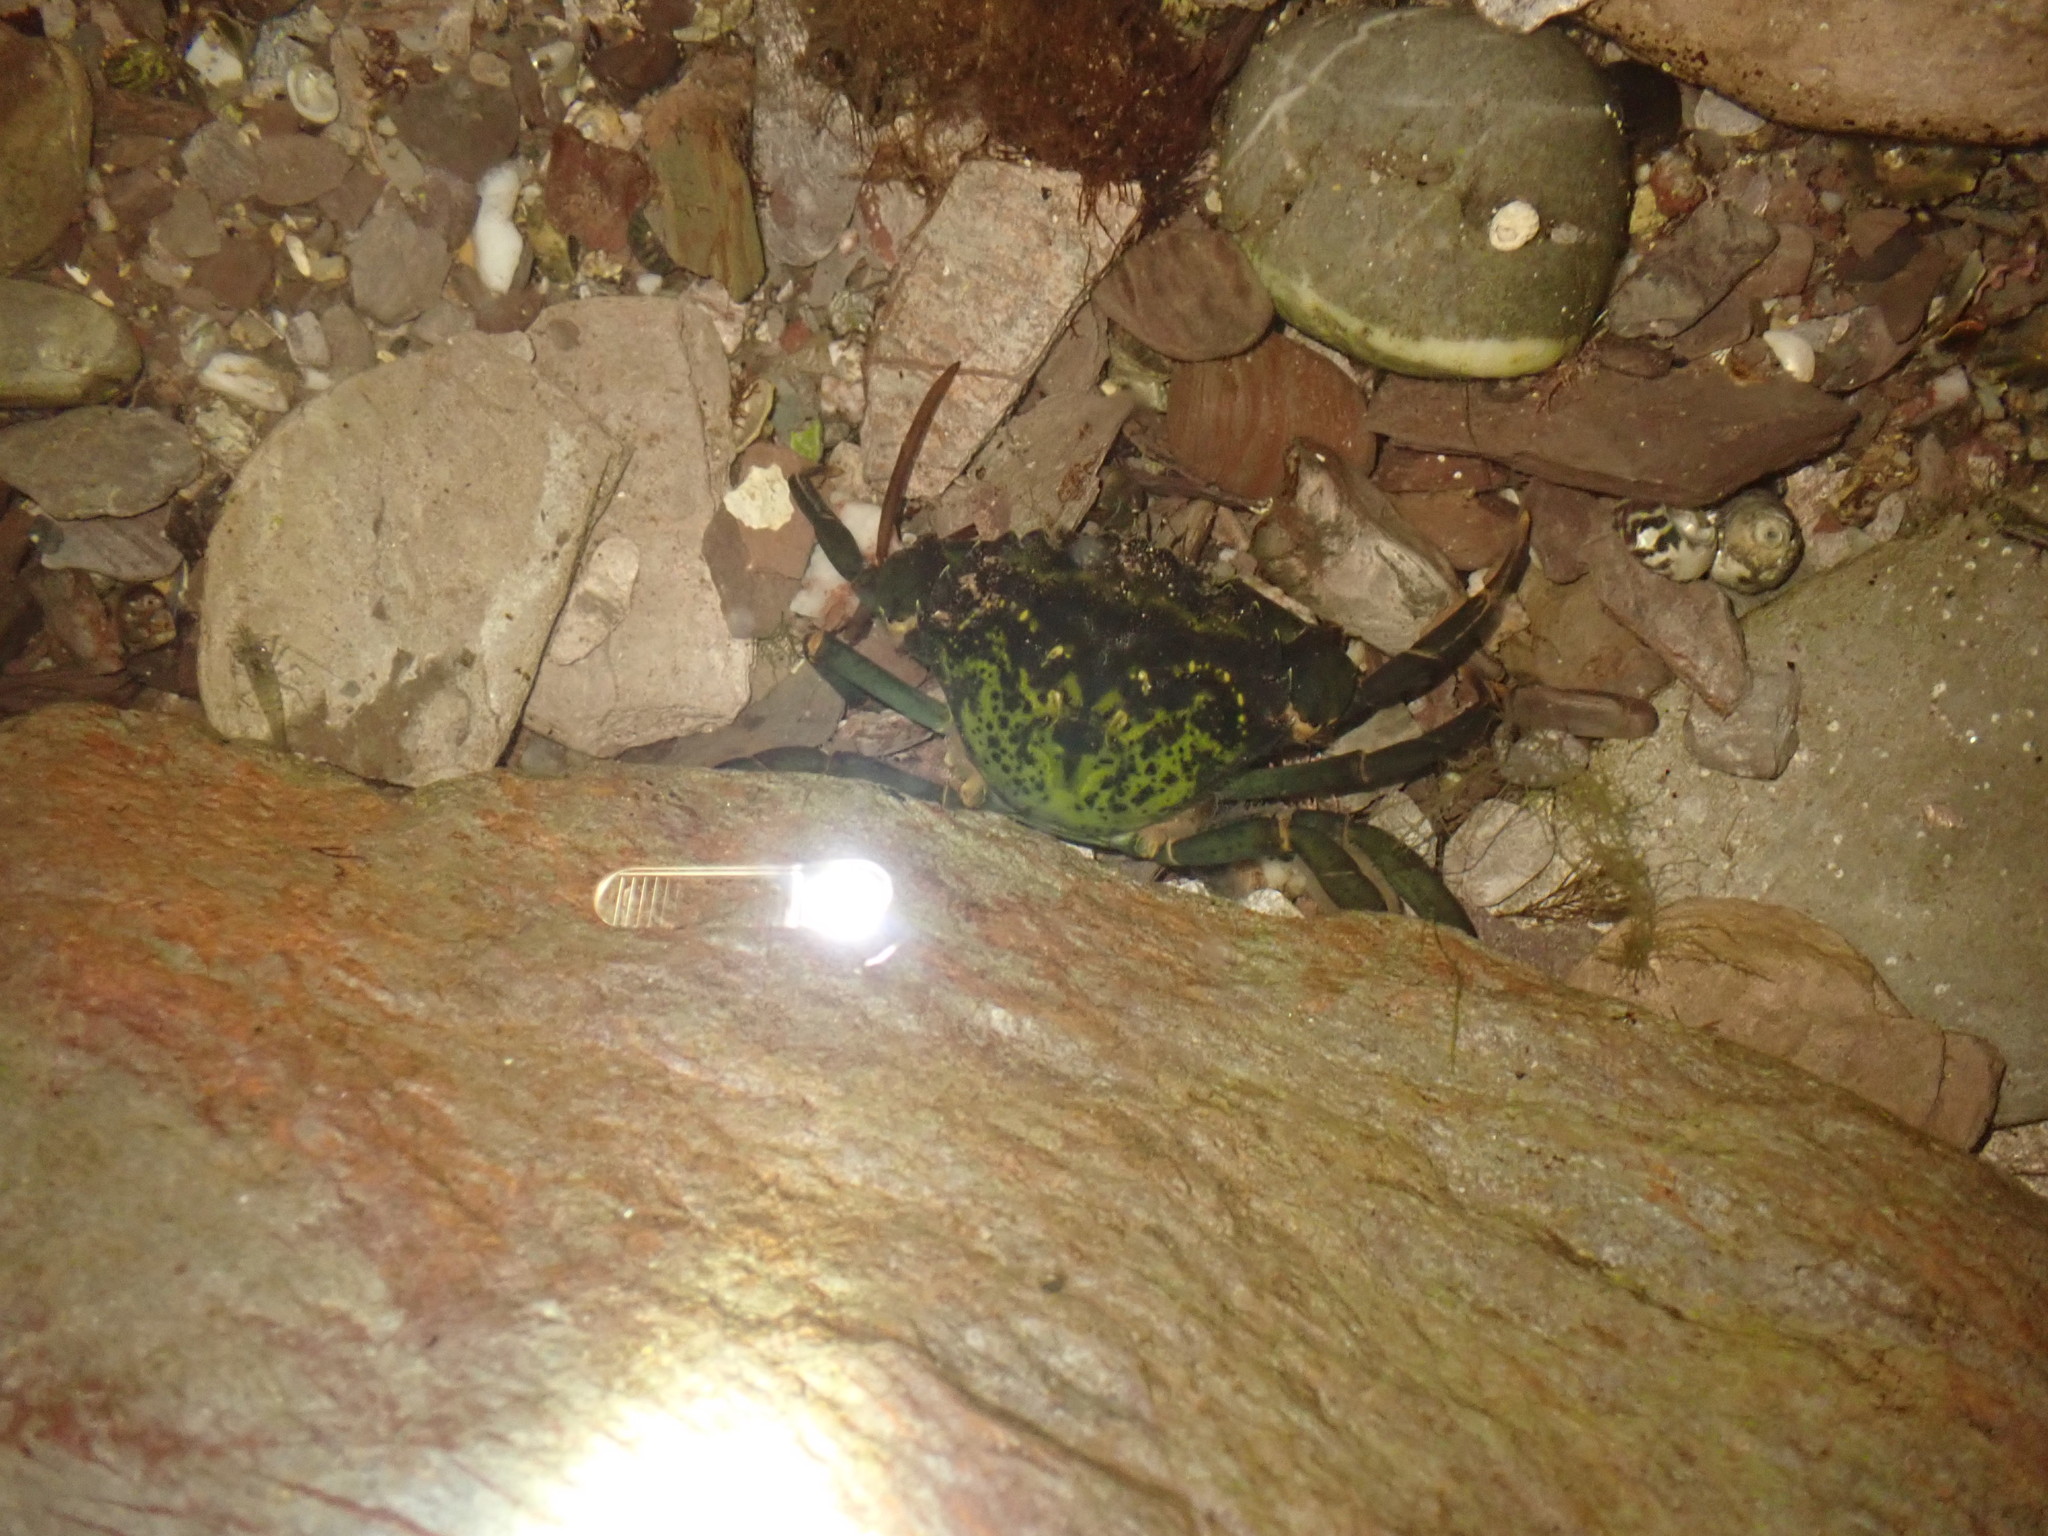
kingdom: Animalia
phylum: Arthropoda
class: Malacostraca
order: Decapoda
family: Carcinidae
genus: Carcinus
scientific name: Carcinus maenas
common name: European green crab
